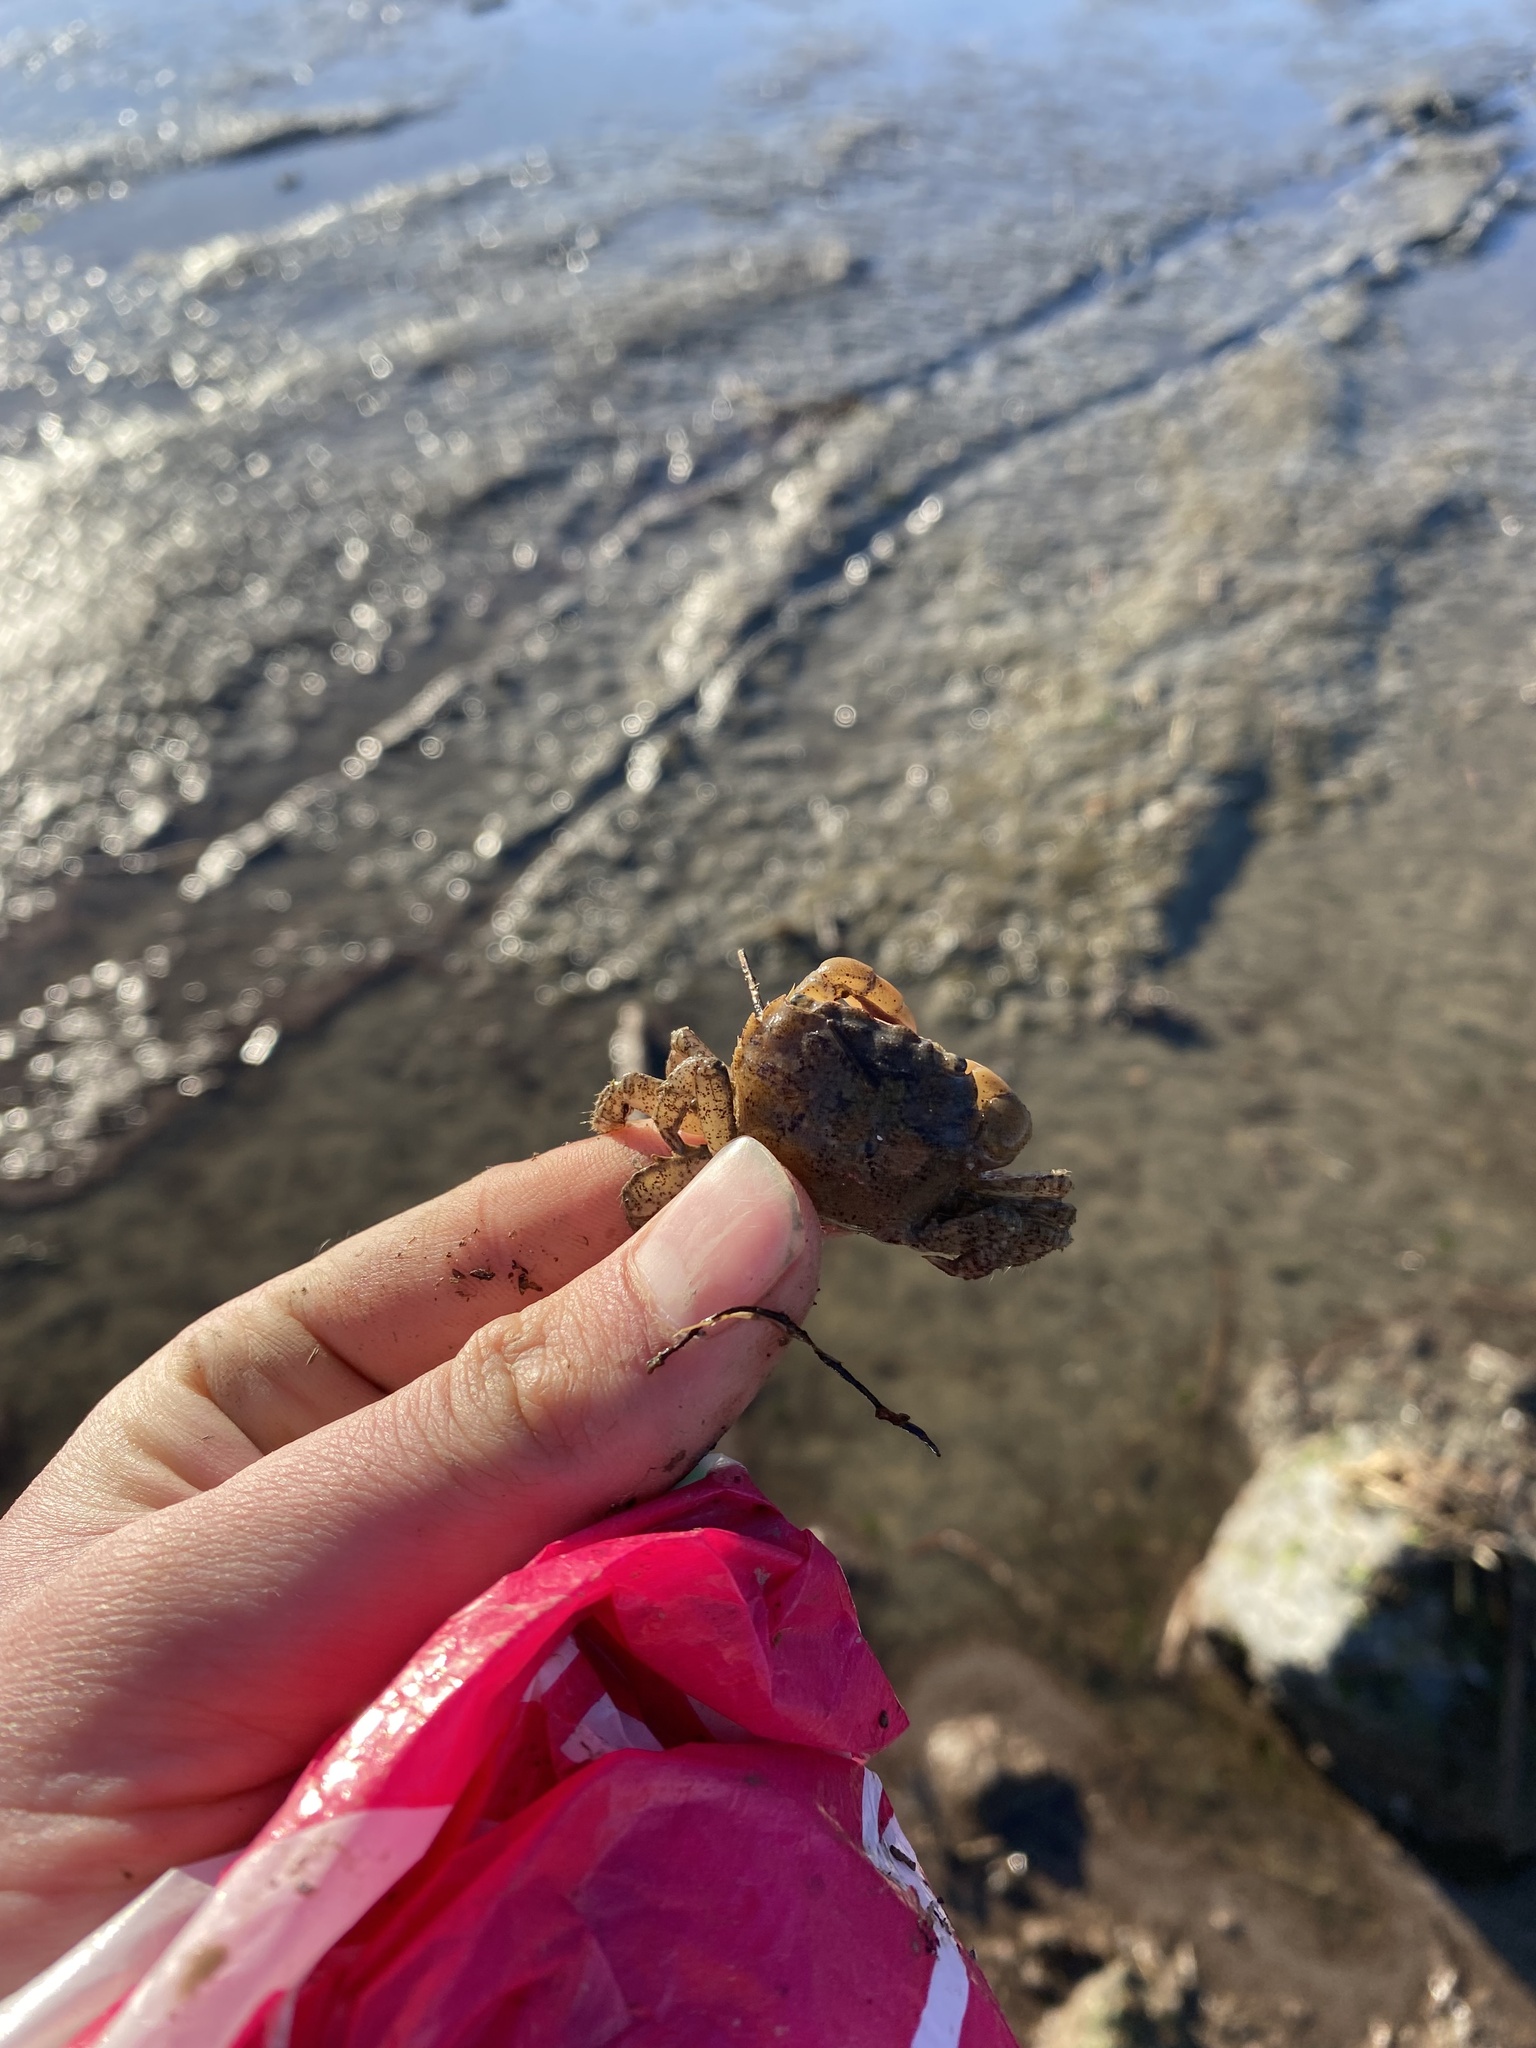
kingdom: Animalia
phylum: Arthropoda
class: Malacostraca
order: Decapoda
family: Varunidae
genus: Hemigrapsus
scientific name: Hemigrapsus oregonensis
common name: Yellow shore crab
